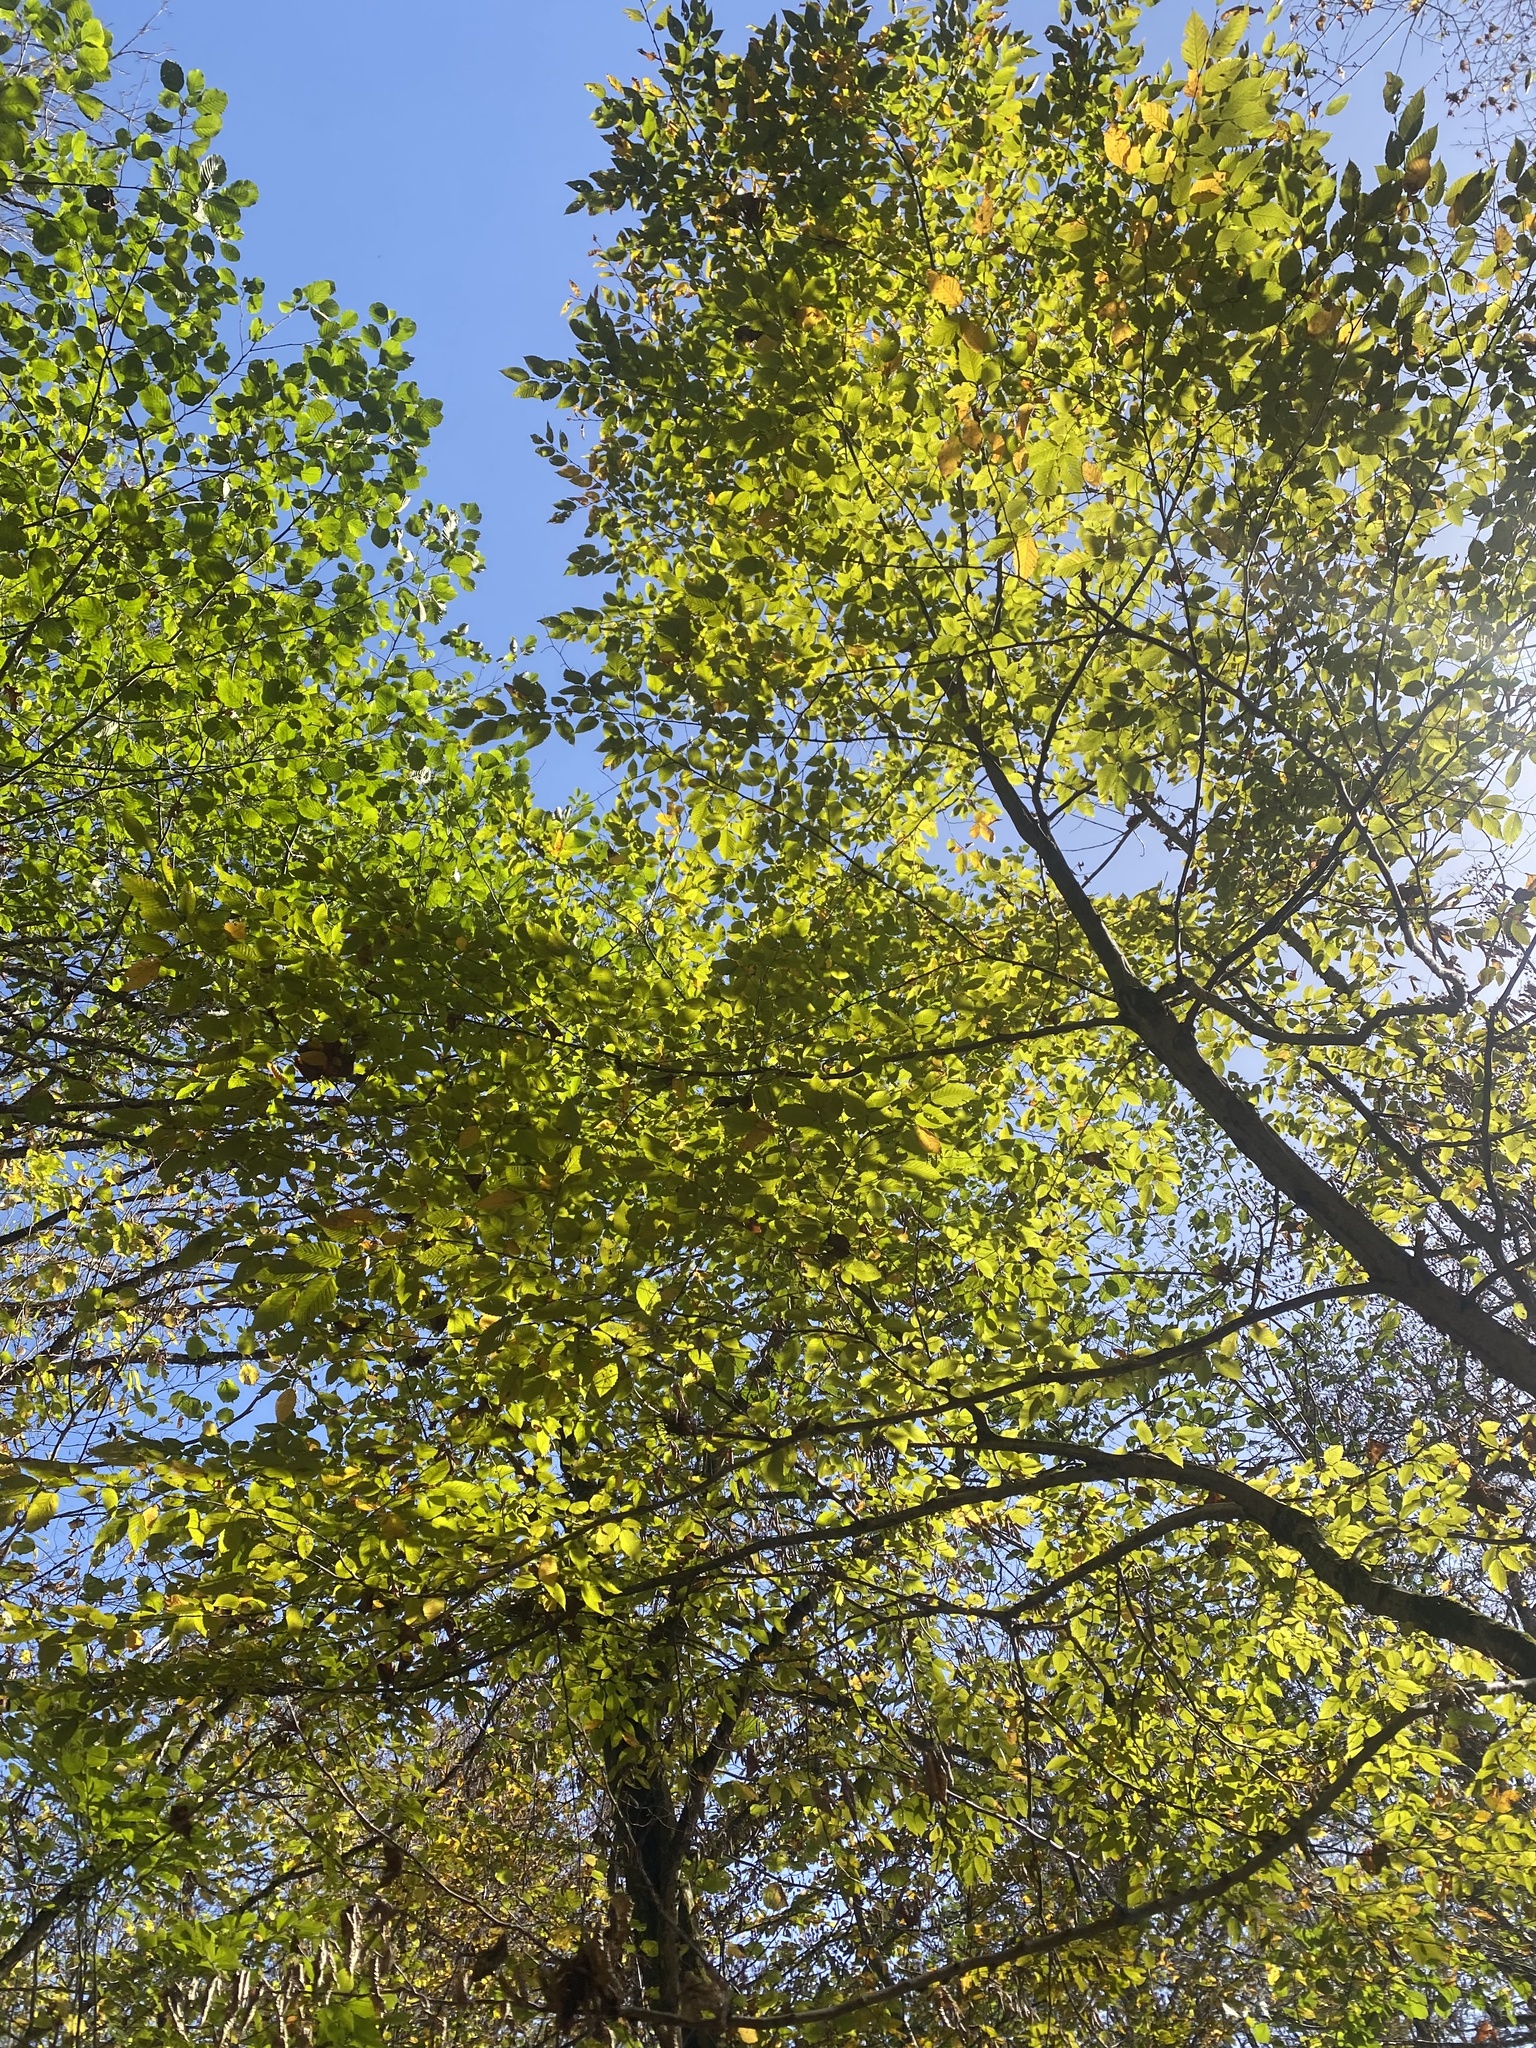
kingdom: Plantae
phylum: Tracheophyta
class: Magnoliopsida
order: Fagales
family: Betulaceae
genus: Carpinus
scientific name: Carpinus betulus
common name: Hornbeam
